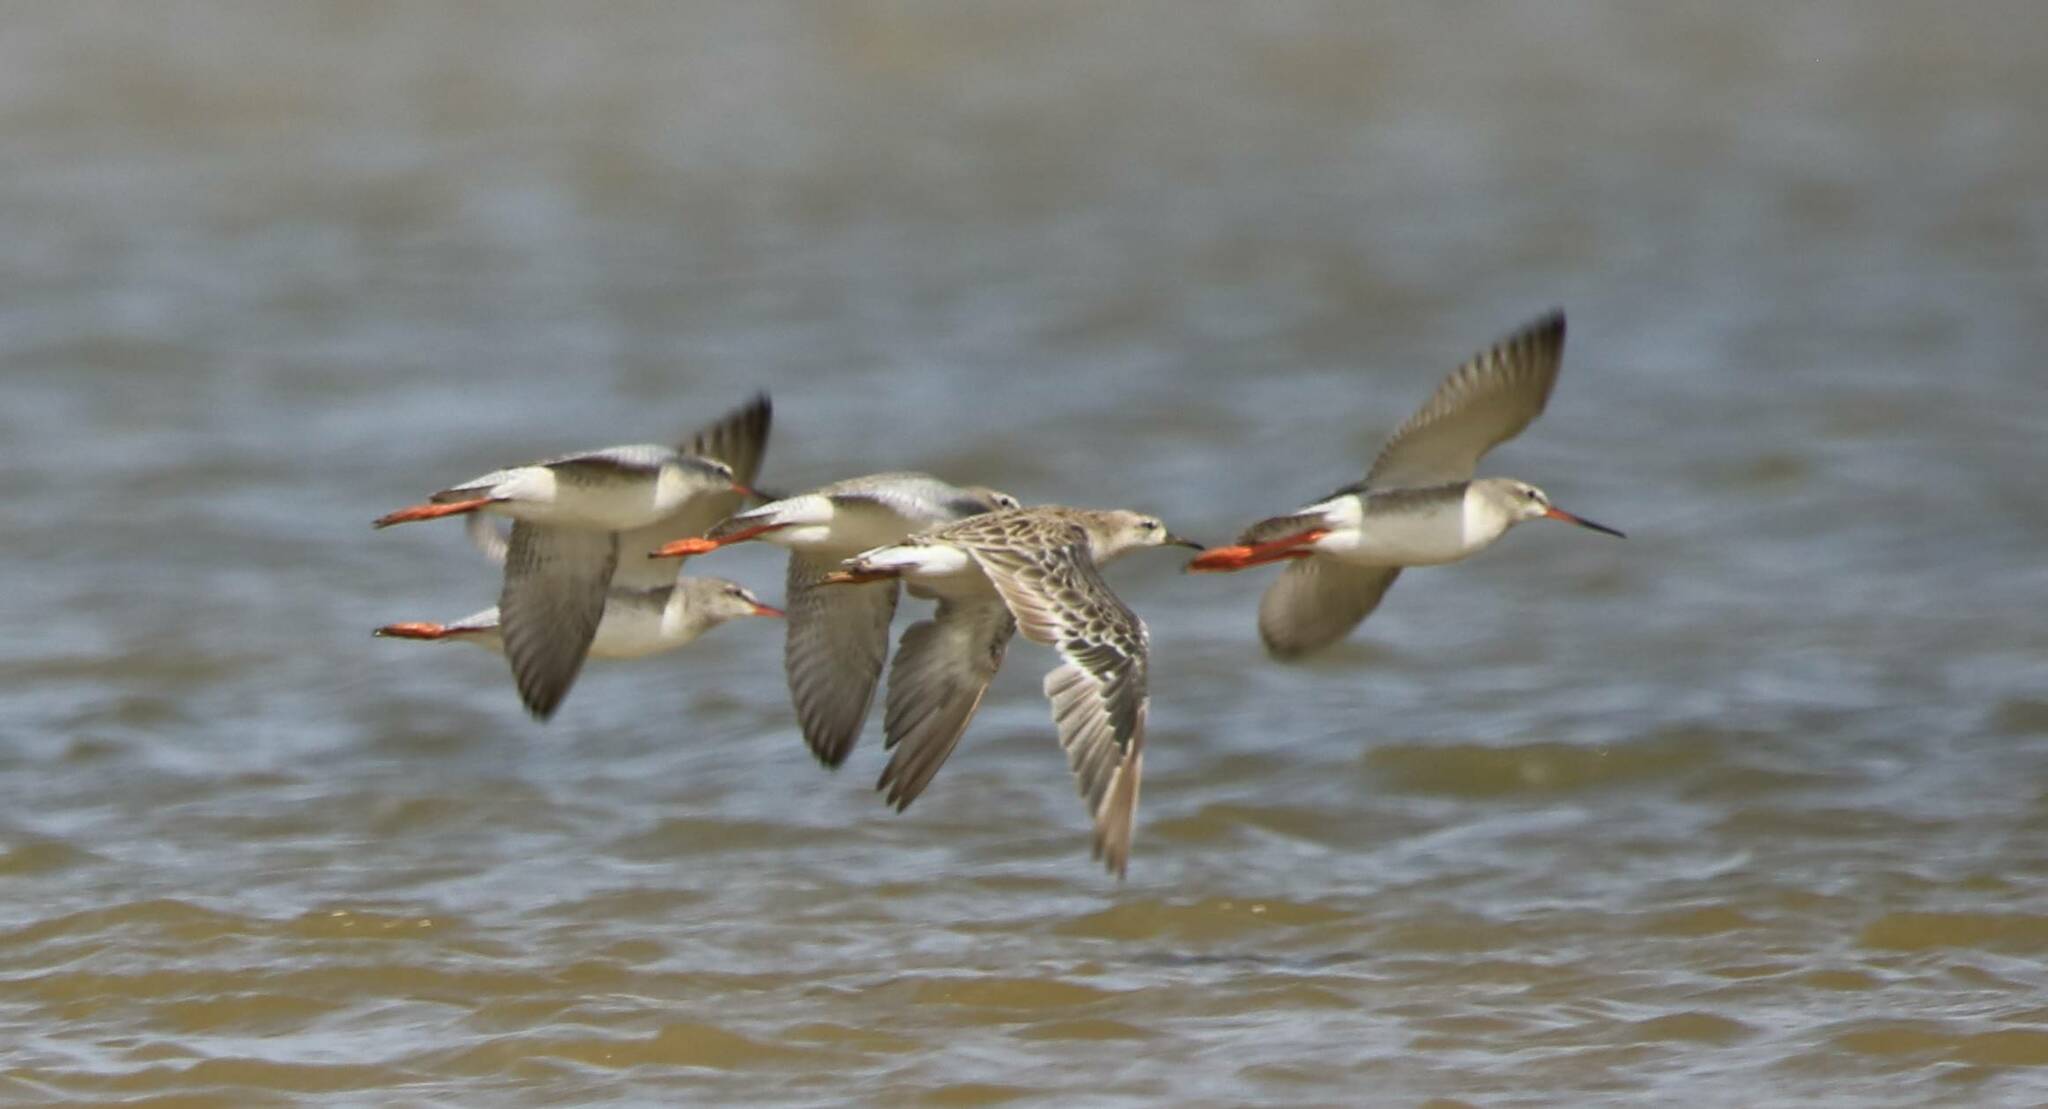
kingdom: Animalia
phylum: Chordata
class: Aves
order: Charadriiformes
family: Scolopacidae
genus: Tringa
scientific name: Tringa erythropus
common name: Spotted redshank
